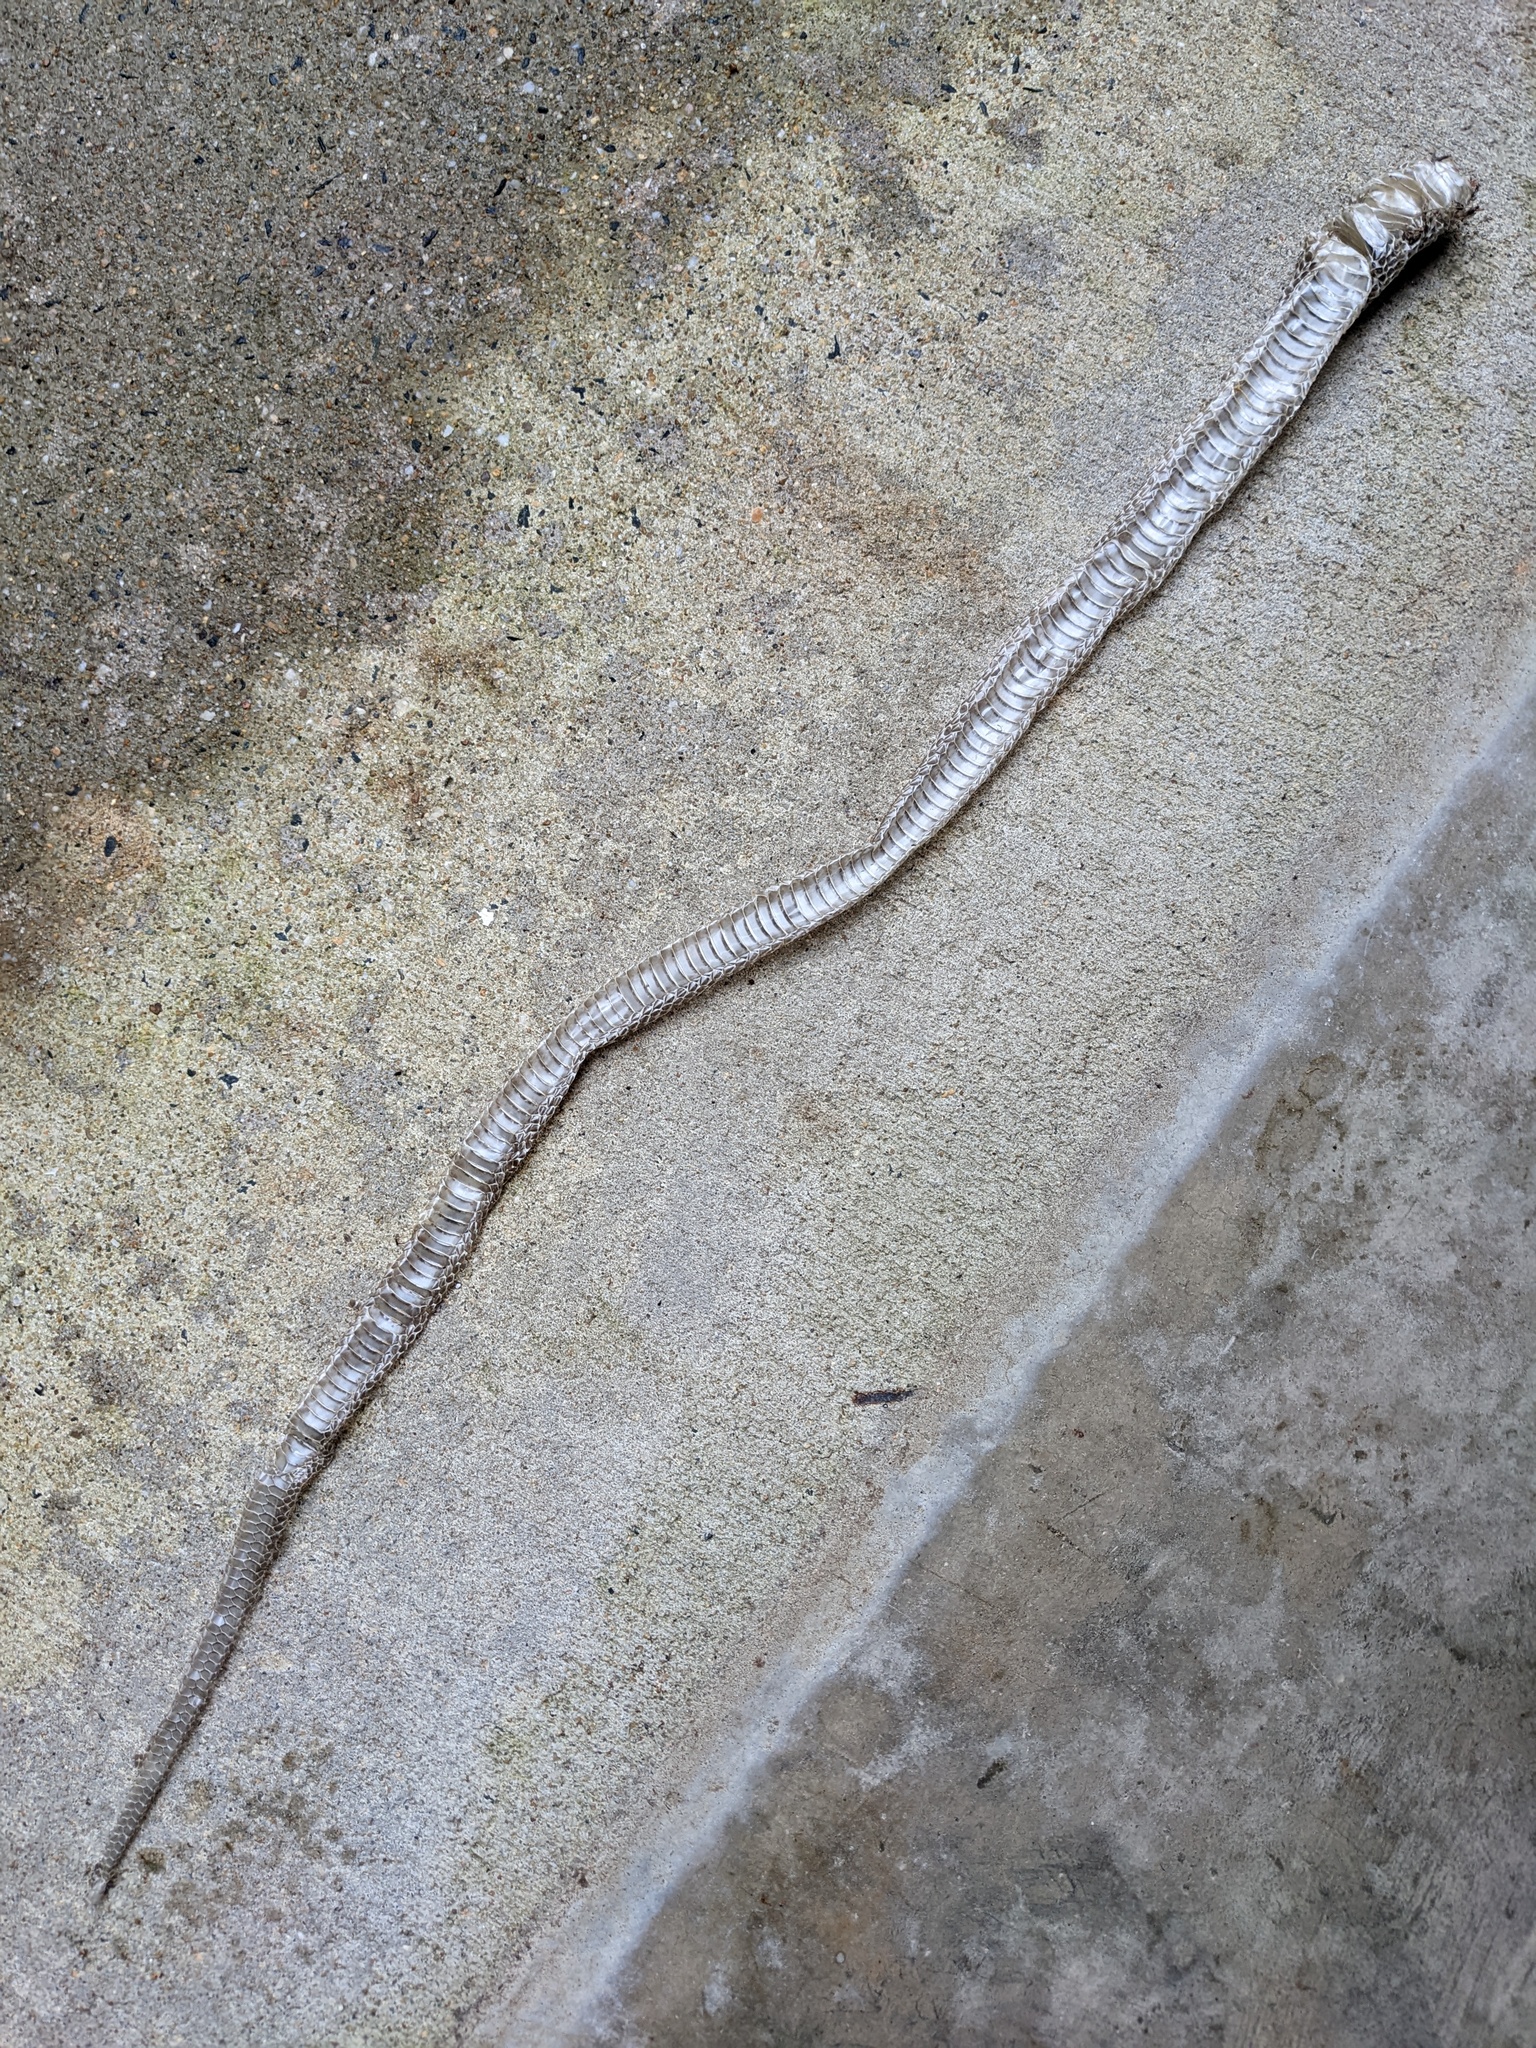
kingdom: Animalia
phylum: Chordata
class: Squamata
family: Colubridae
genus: Pantherophis
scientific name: Pantherophis alleghaniensis
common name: Eastern rat snake
